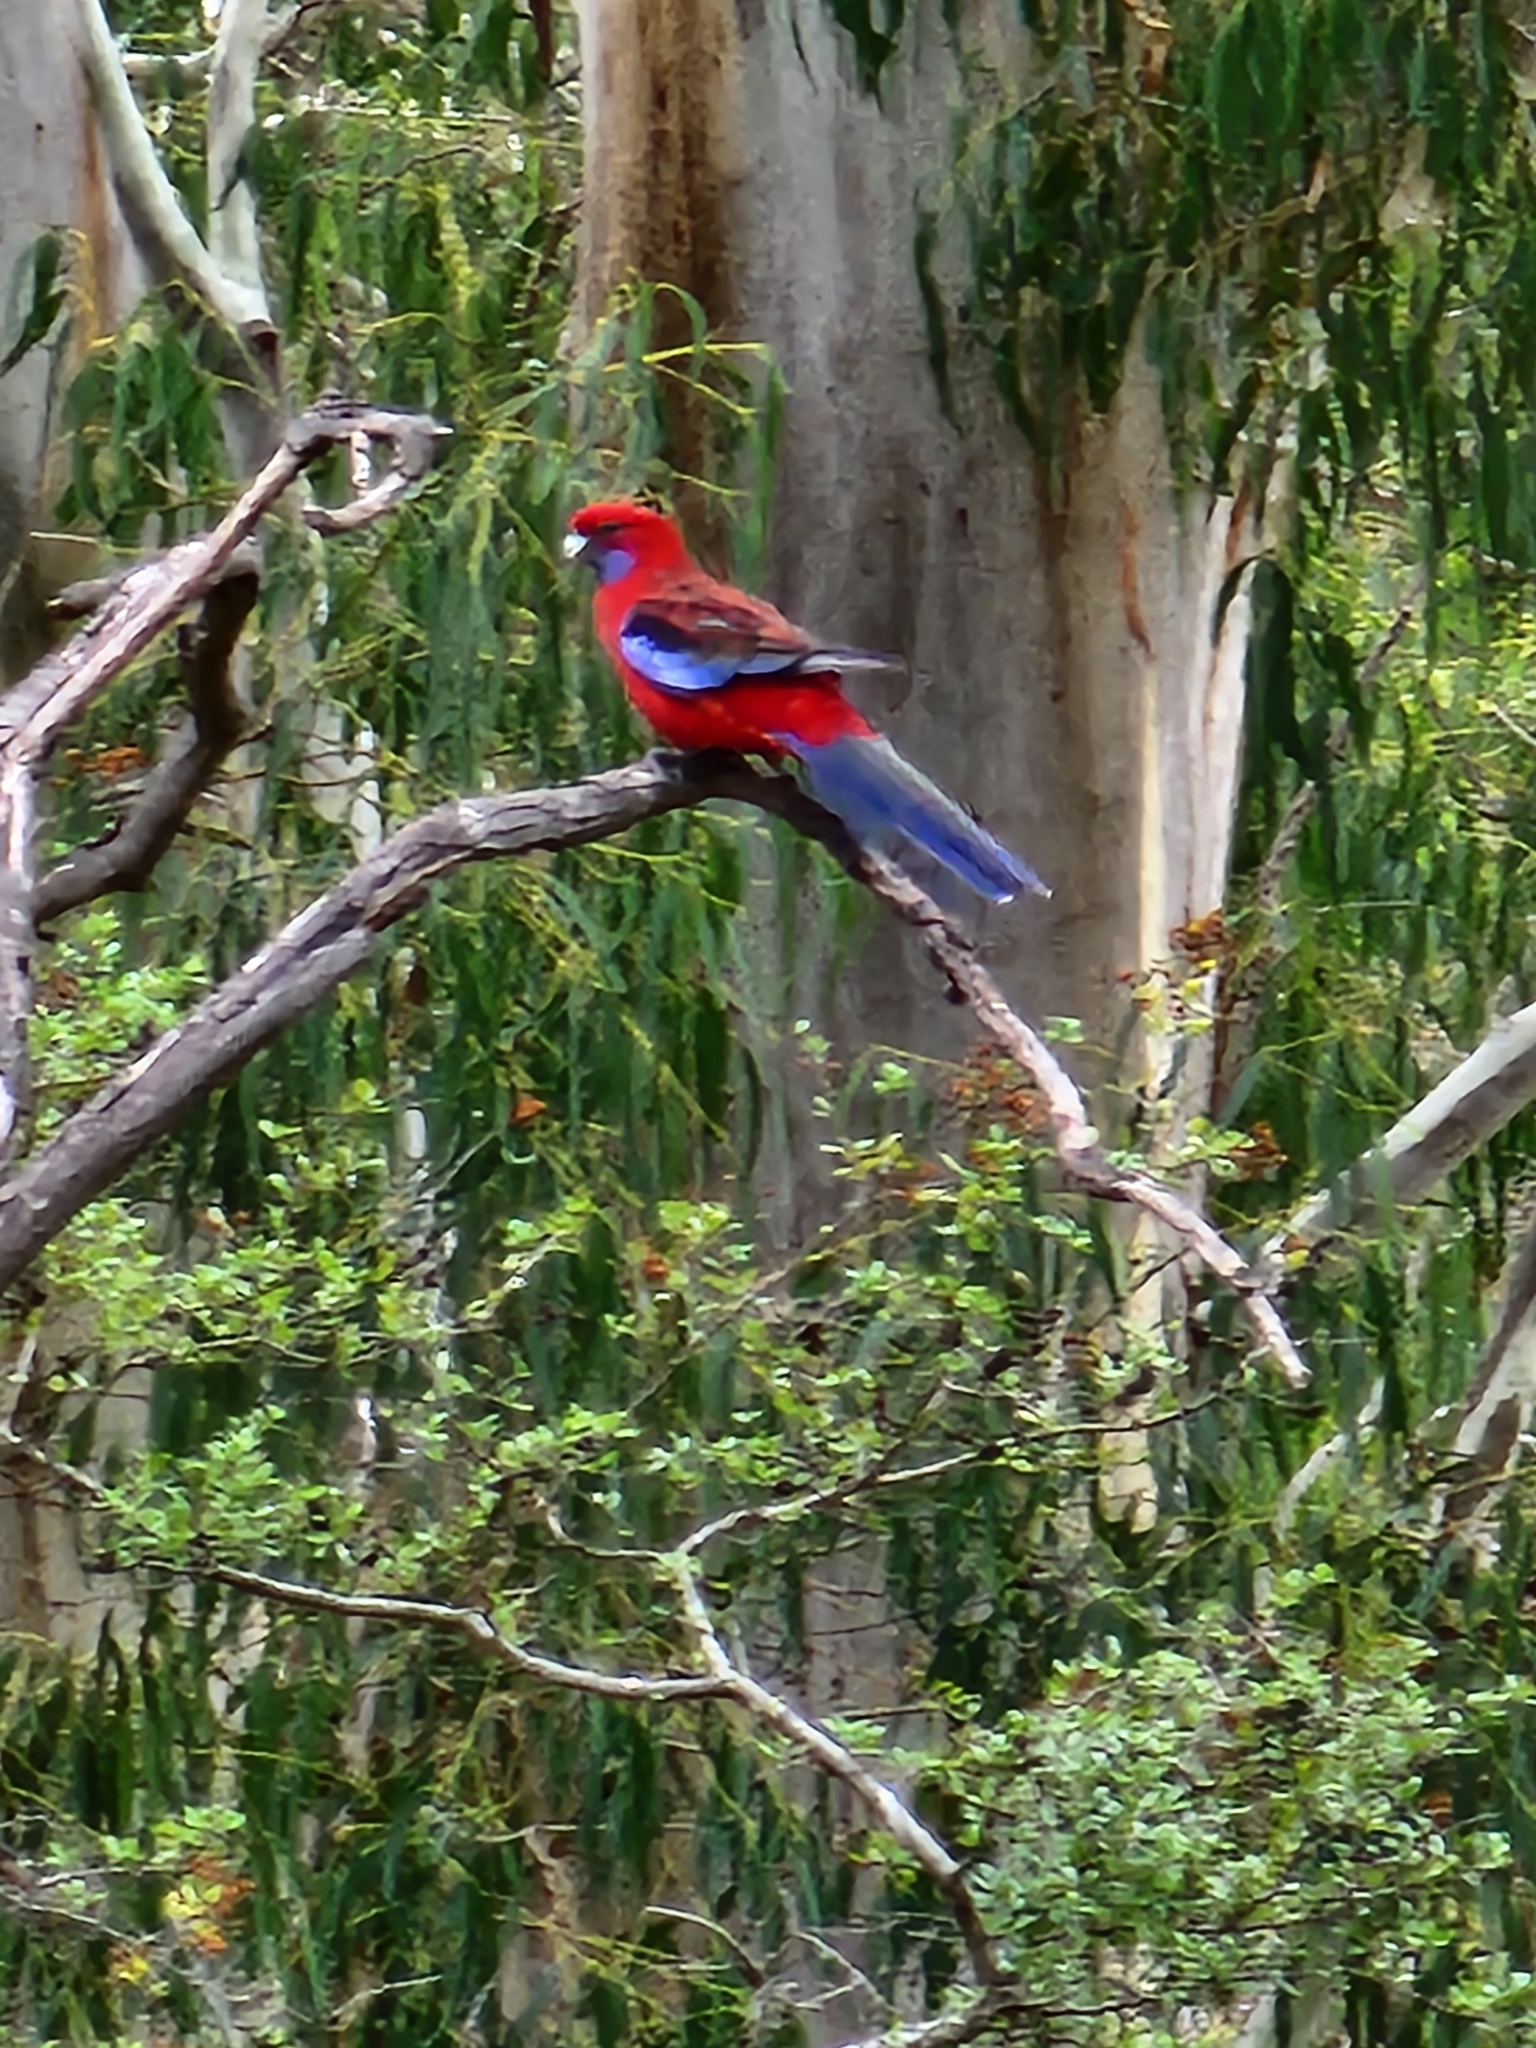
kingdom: Animalia
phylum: Chordata
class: Aves
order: Psittaciformes
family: Psittacidae
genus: Platycercus
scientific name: Platycercus elegans
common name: Crimson rosella
